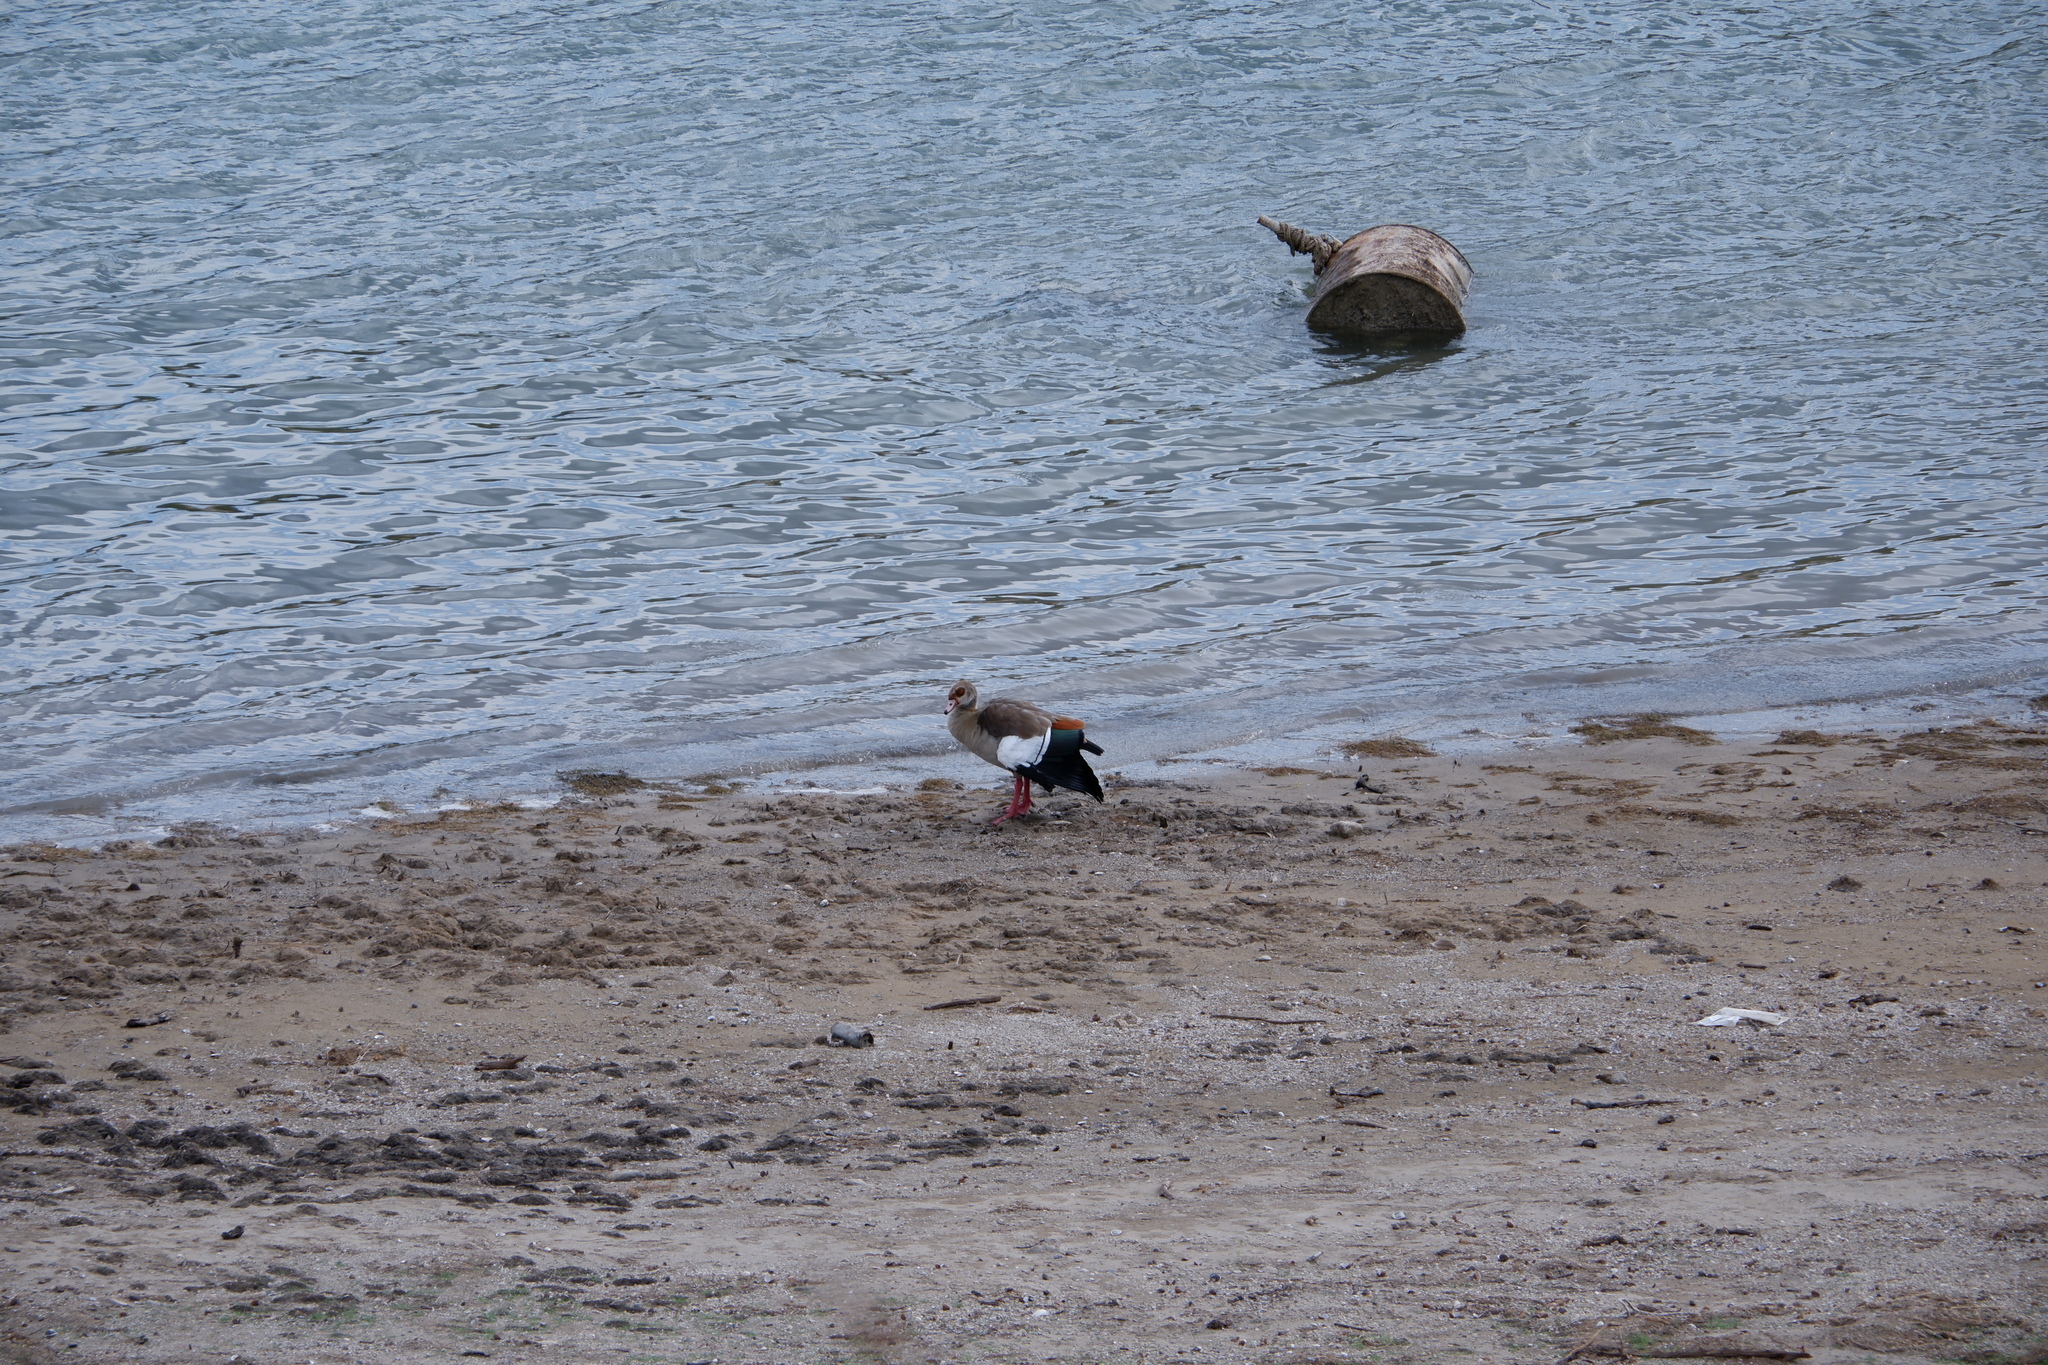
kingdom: Animalia
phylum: Chordata
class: Aves
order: Anseriformes
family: Anatidae
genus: Alopochen
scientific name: Alopochen aegyptiaca
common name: Egyptian goose
